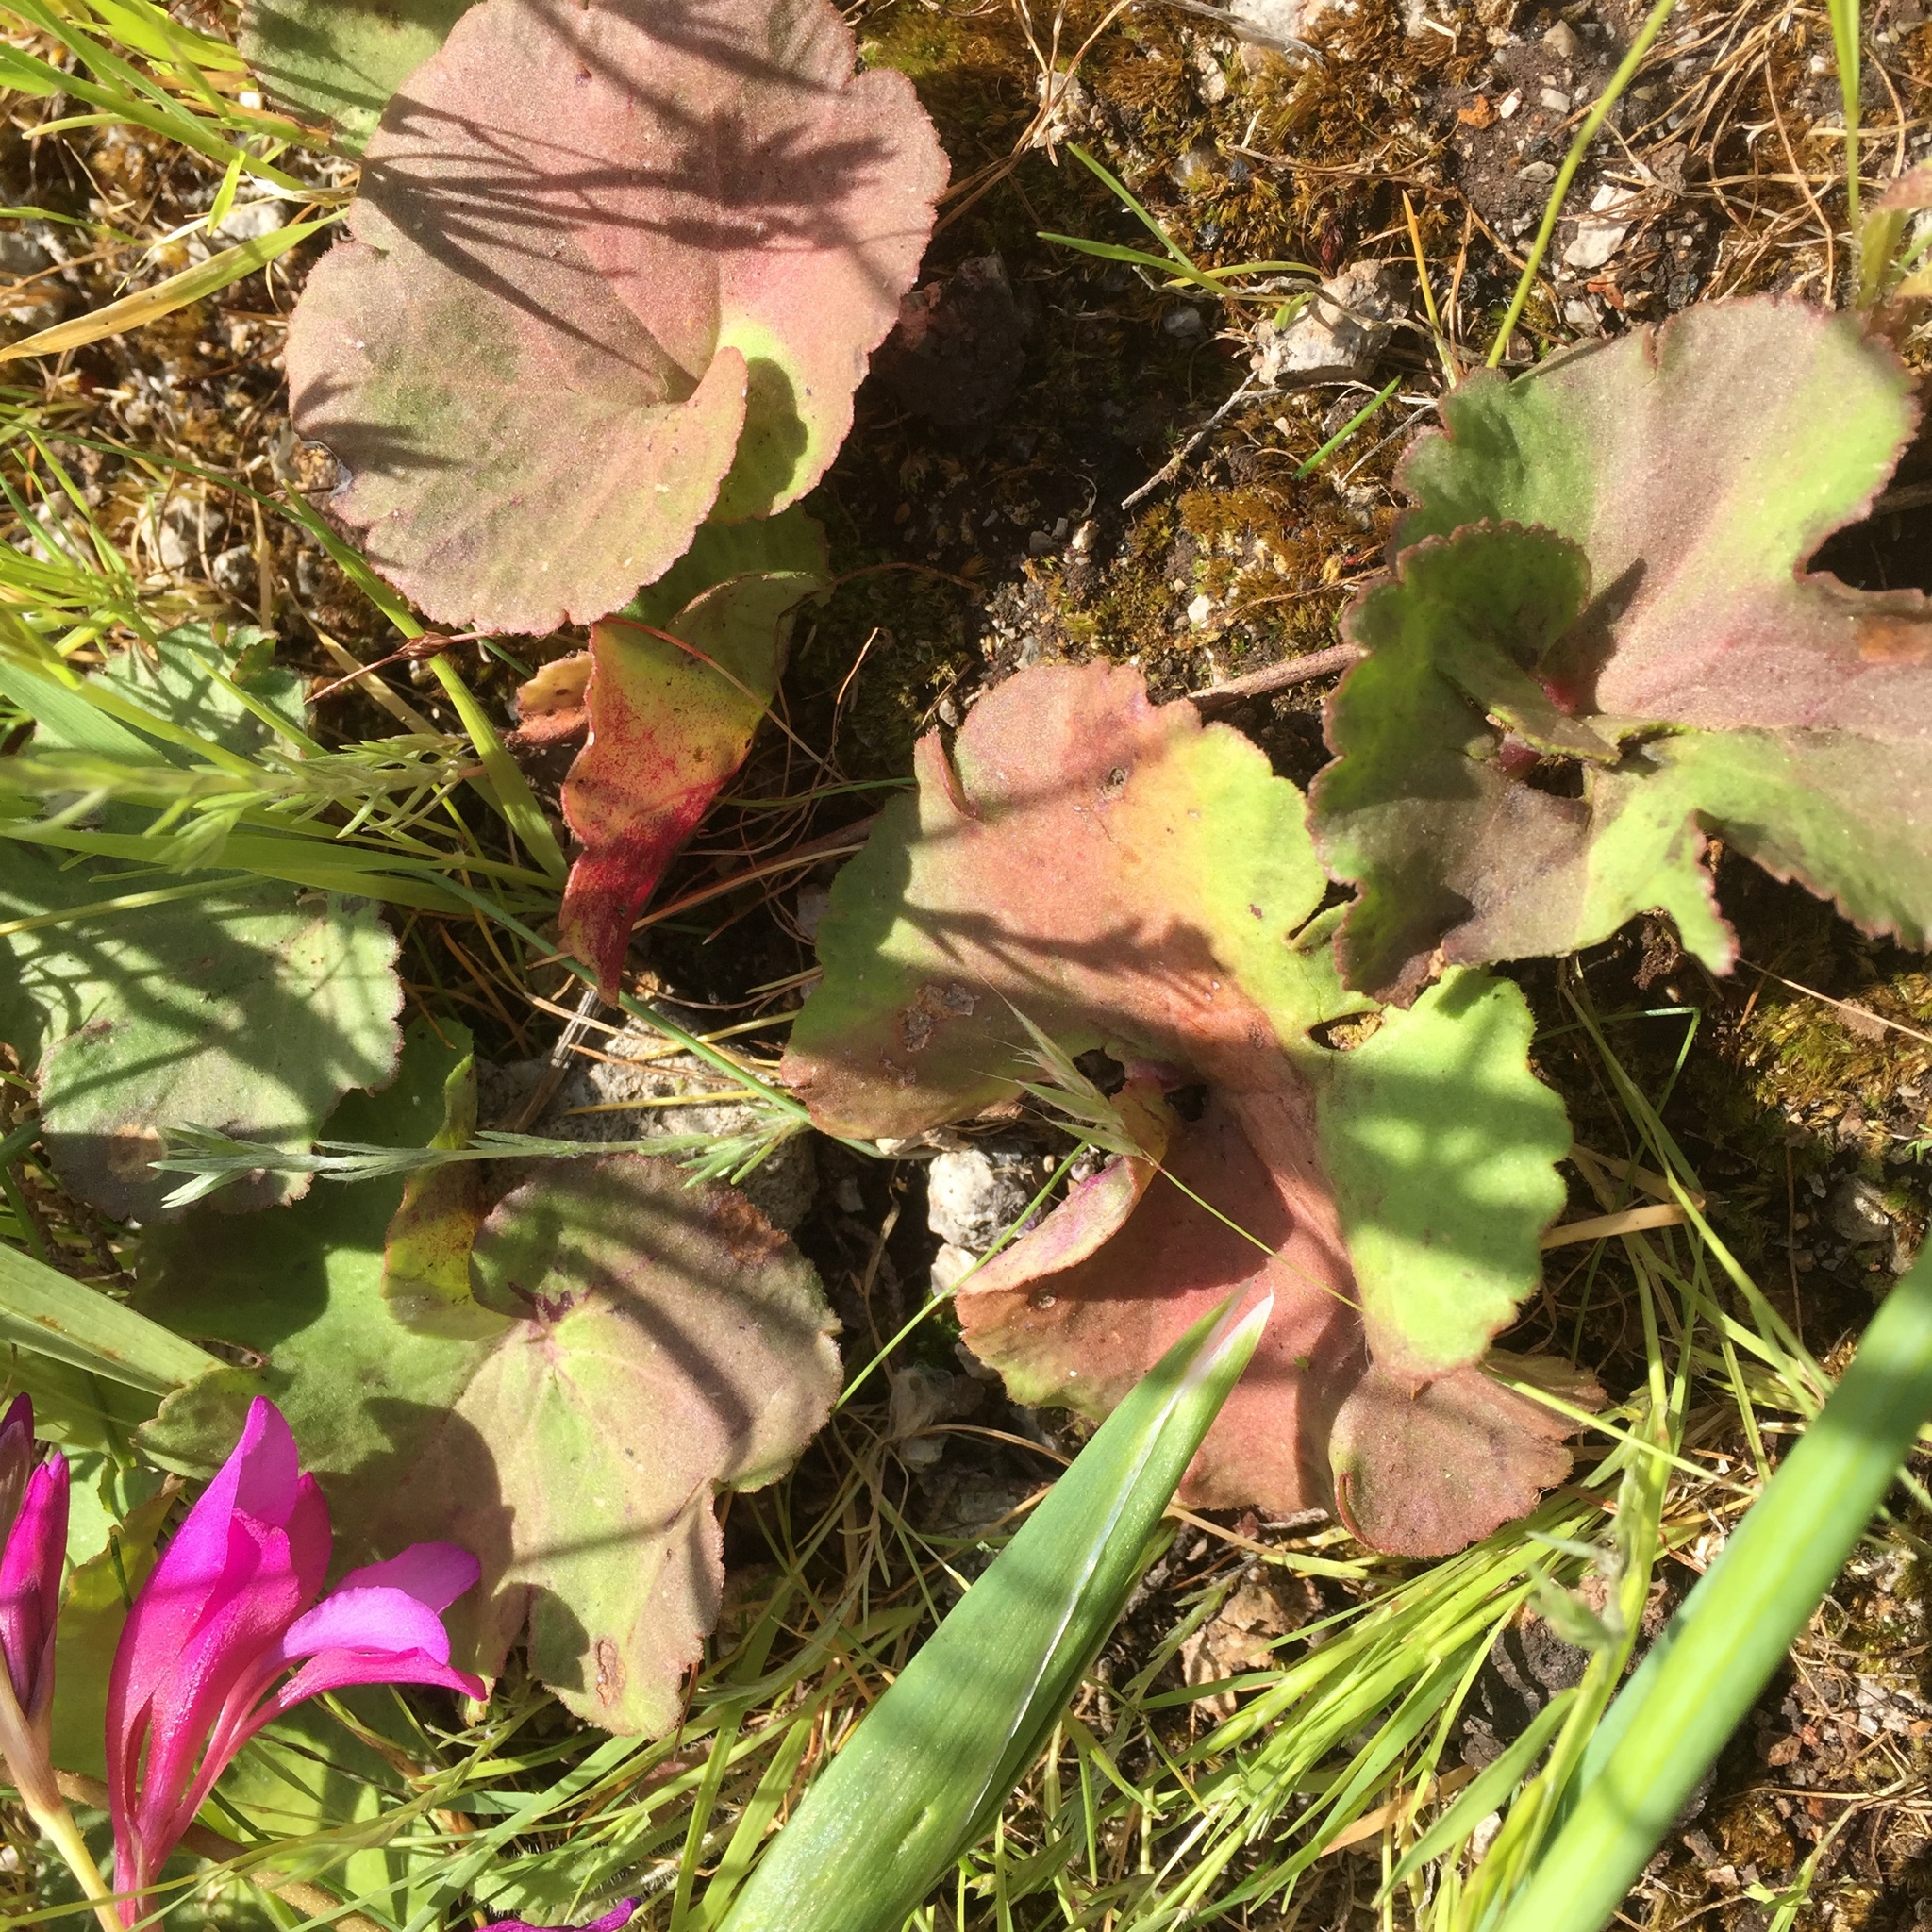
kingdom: Plantae
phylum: Tracheophyta
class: Magnoliopsida
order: Ranunculales
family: Ranunculaceae
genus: Anemone
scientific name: Anemone palmata
